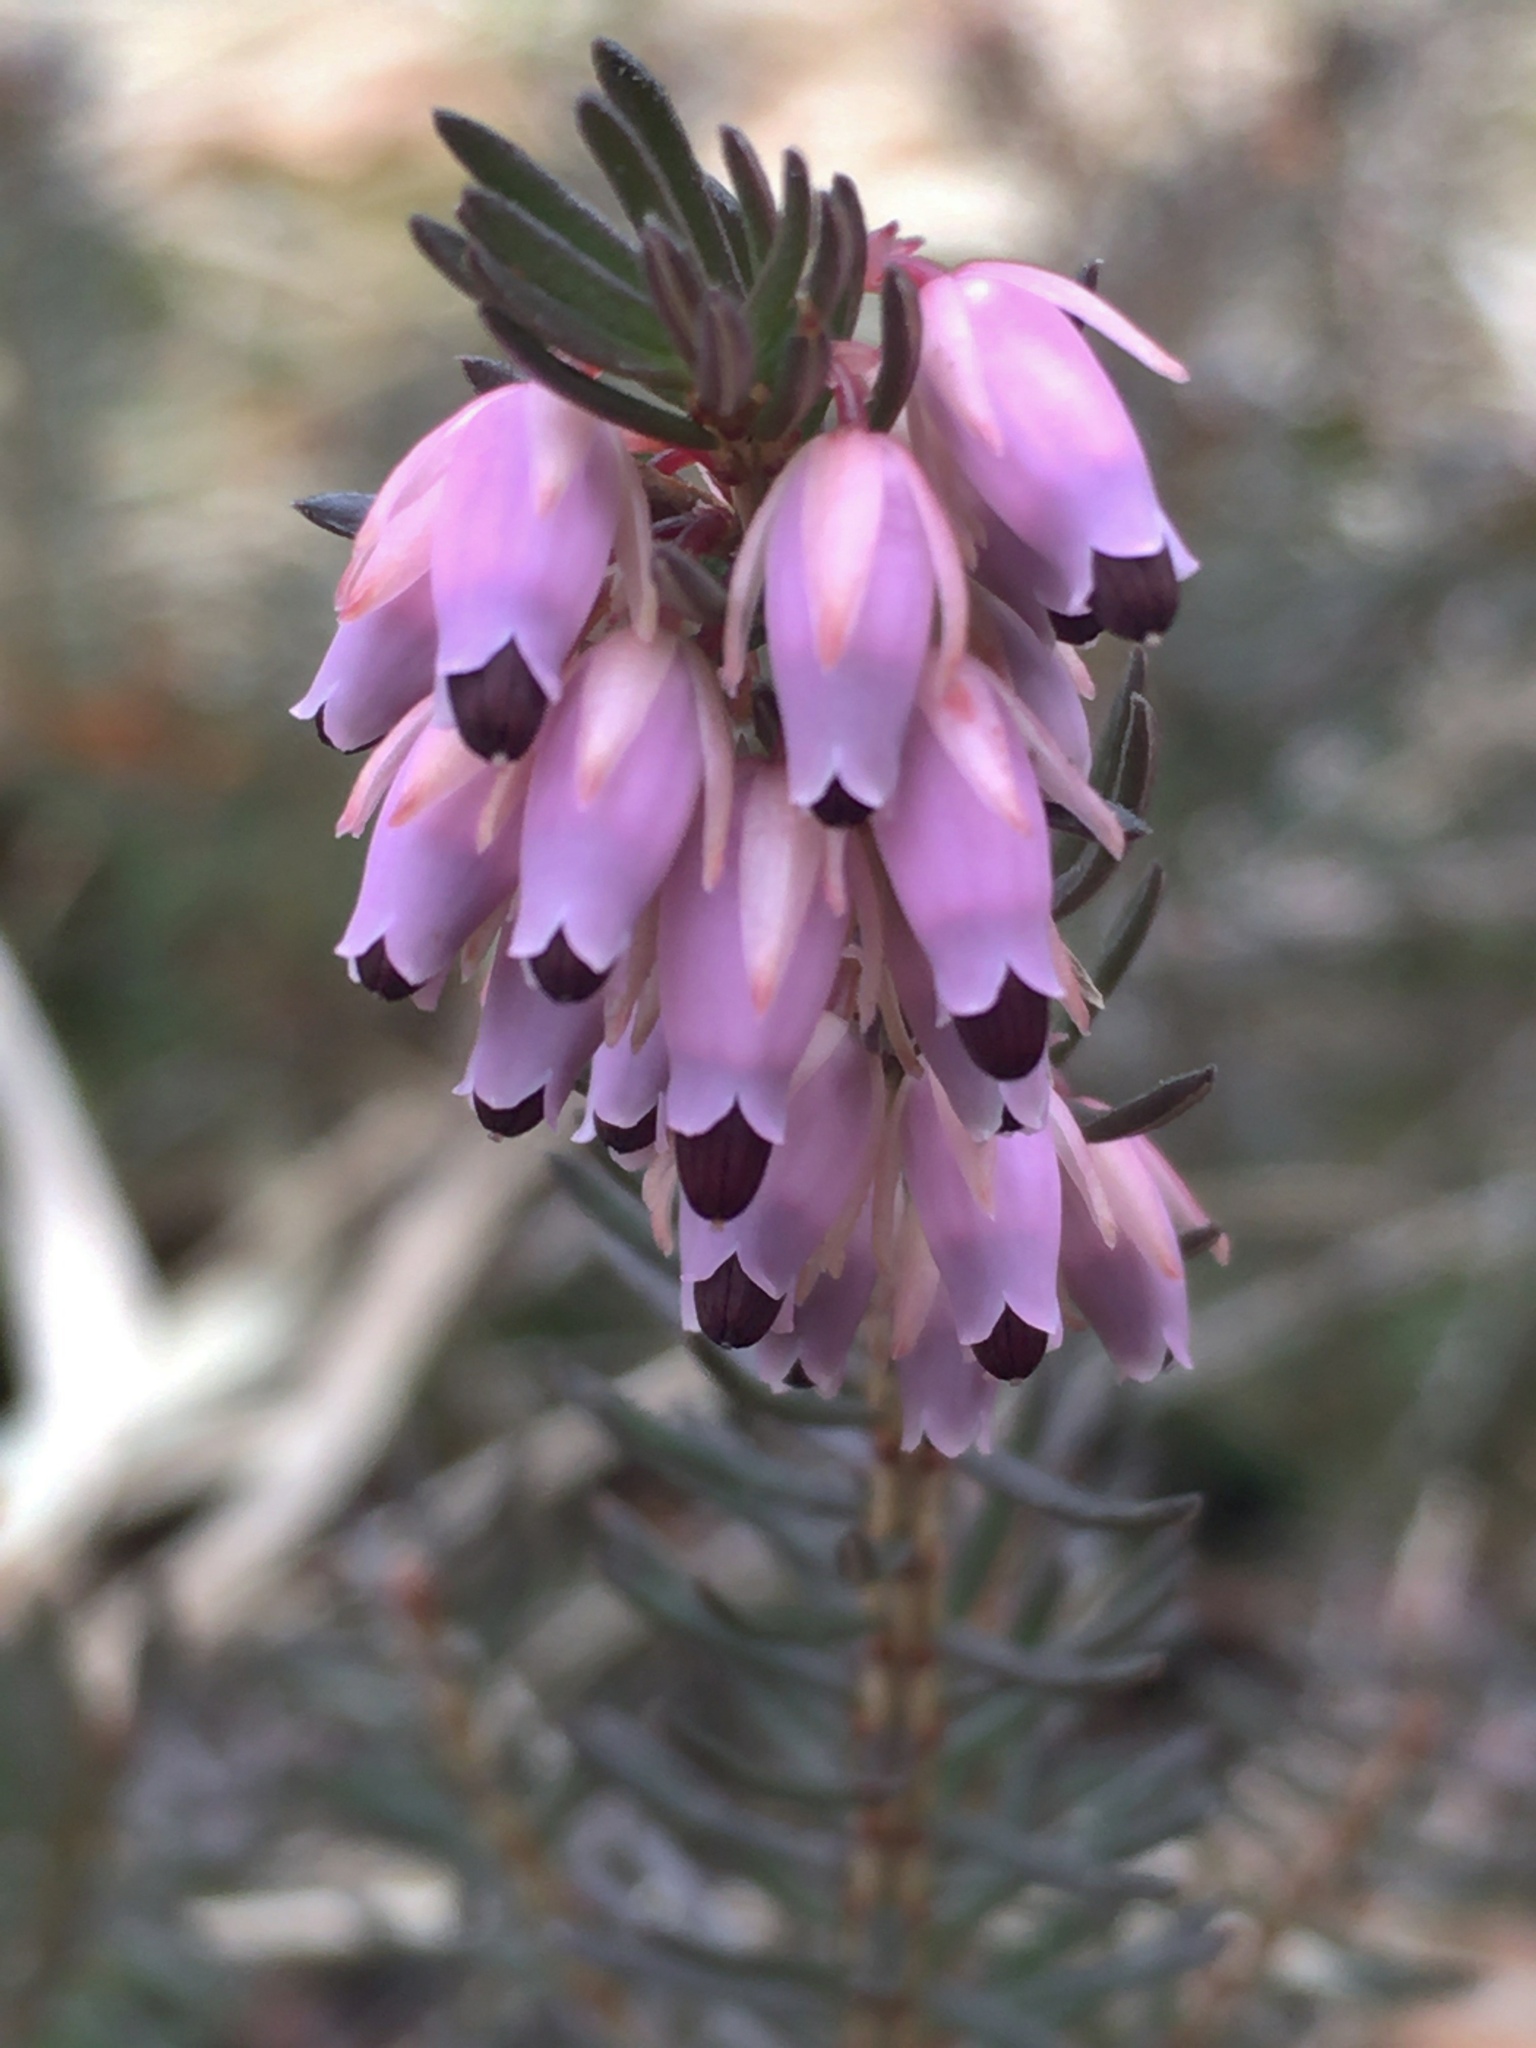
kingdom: Plantae
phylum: Tracheophyta
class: Magnoliopsida
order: Ericales
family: Ericaceae
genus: Erica
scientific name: Erica carnea
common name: Winter heath
